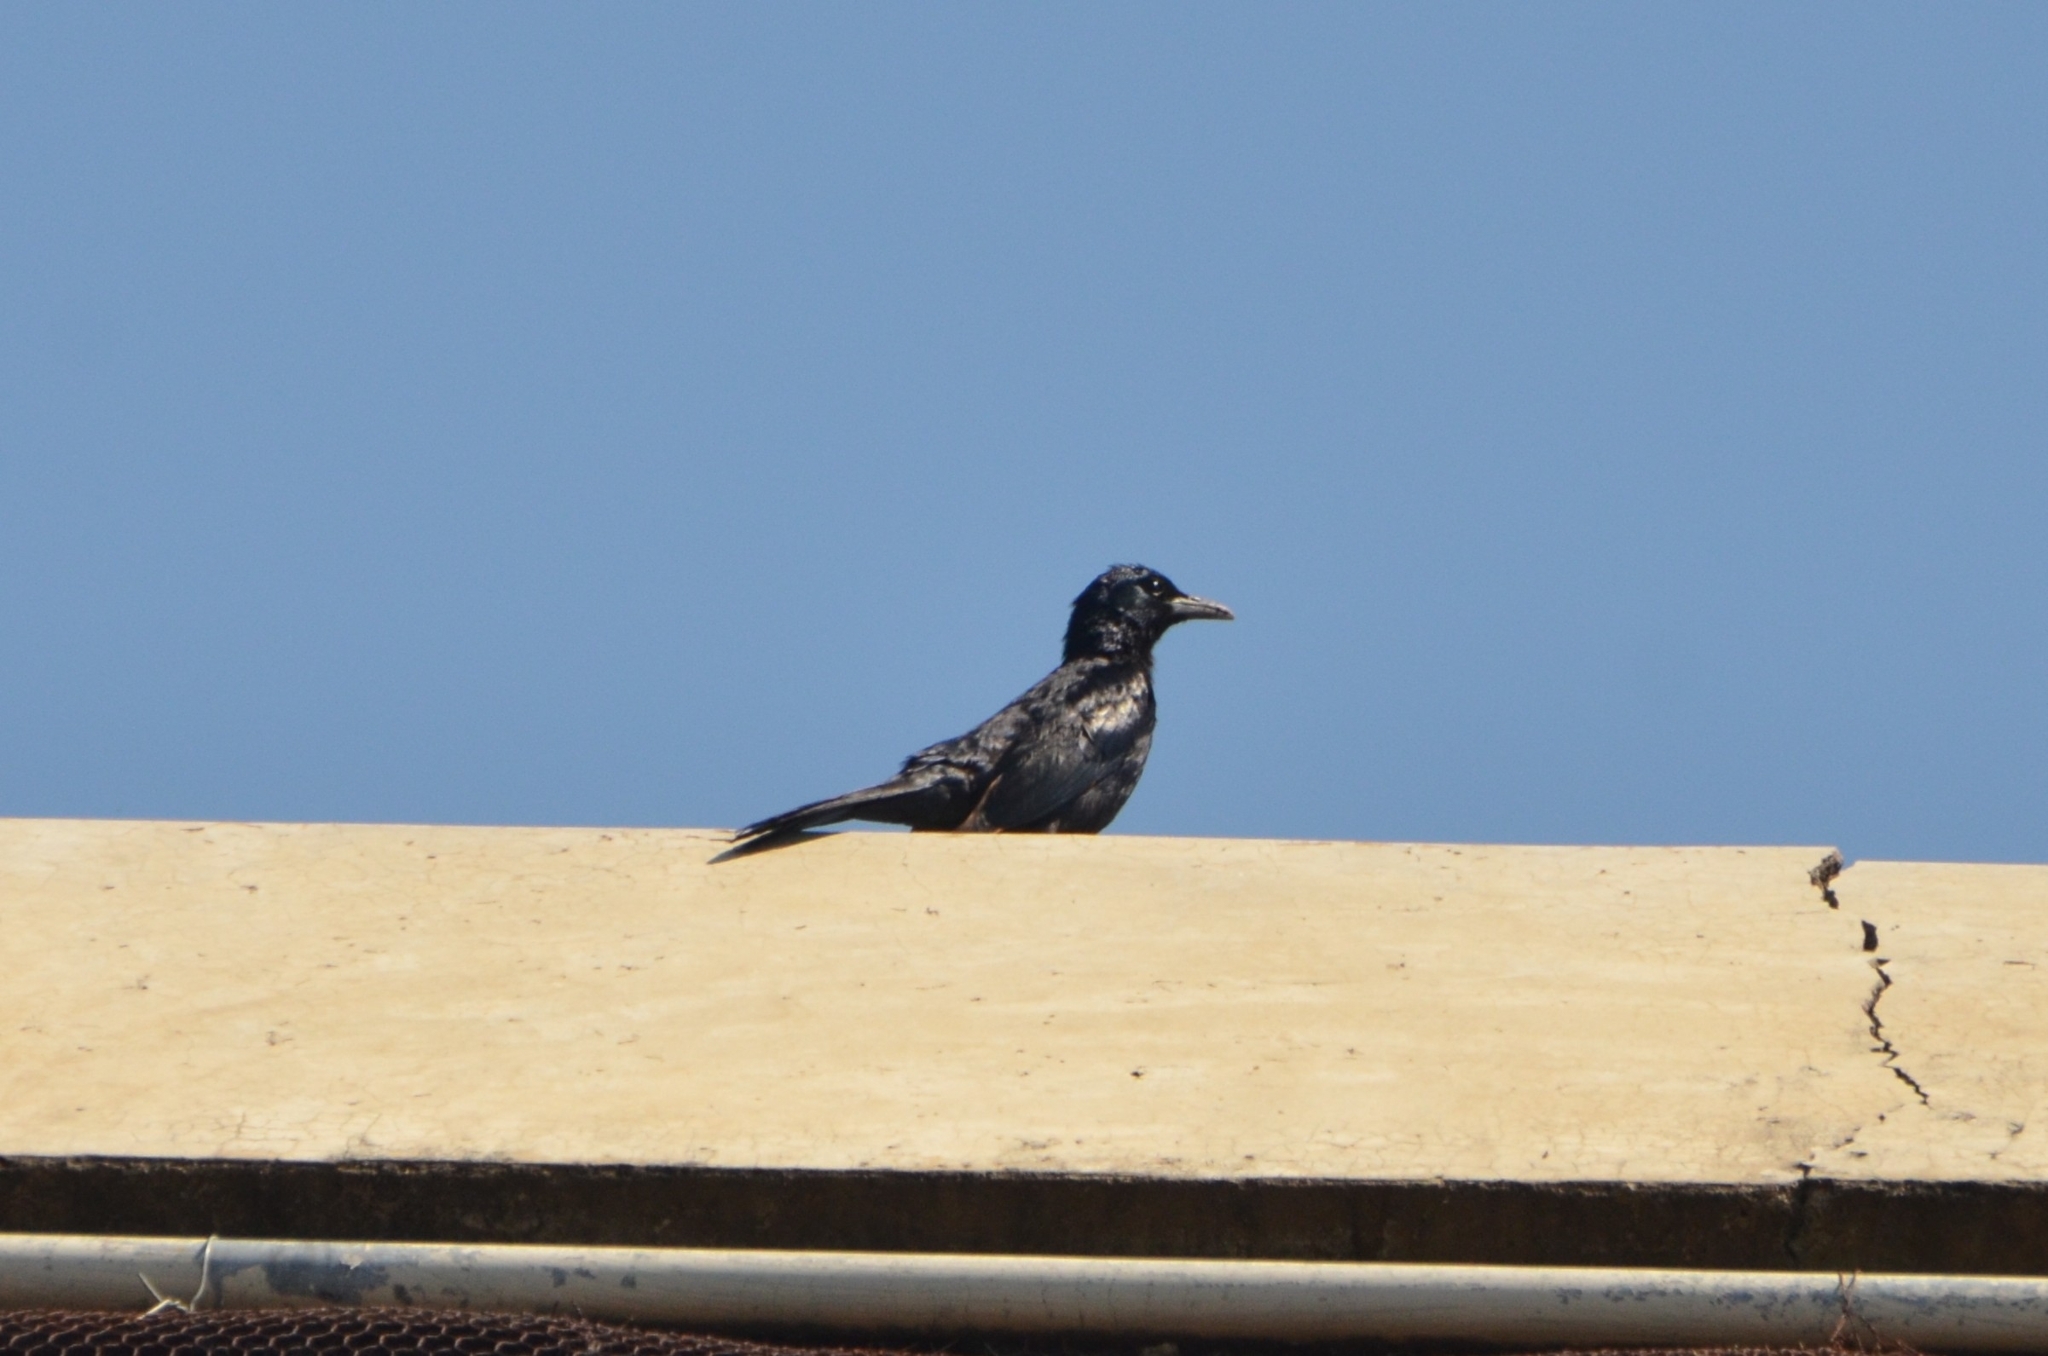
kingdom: Animalia
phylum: Chordata
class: Aves
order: Passeriformes
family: Sturnidae
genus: Onychognathus
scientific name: Onychognathus morio
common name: Red-winged starling
